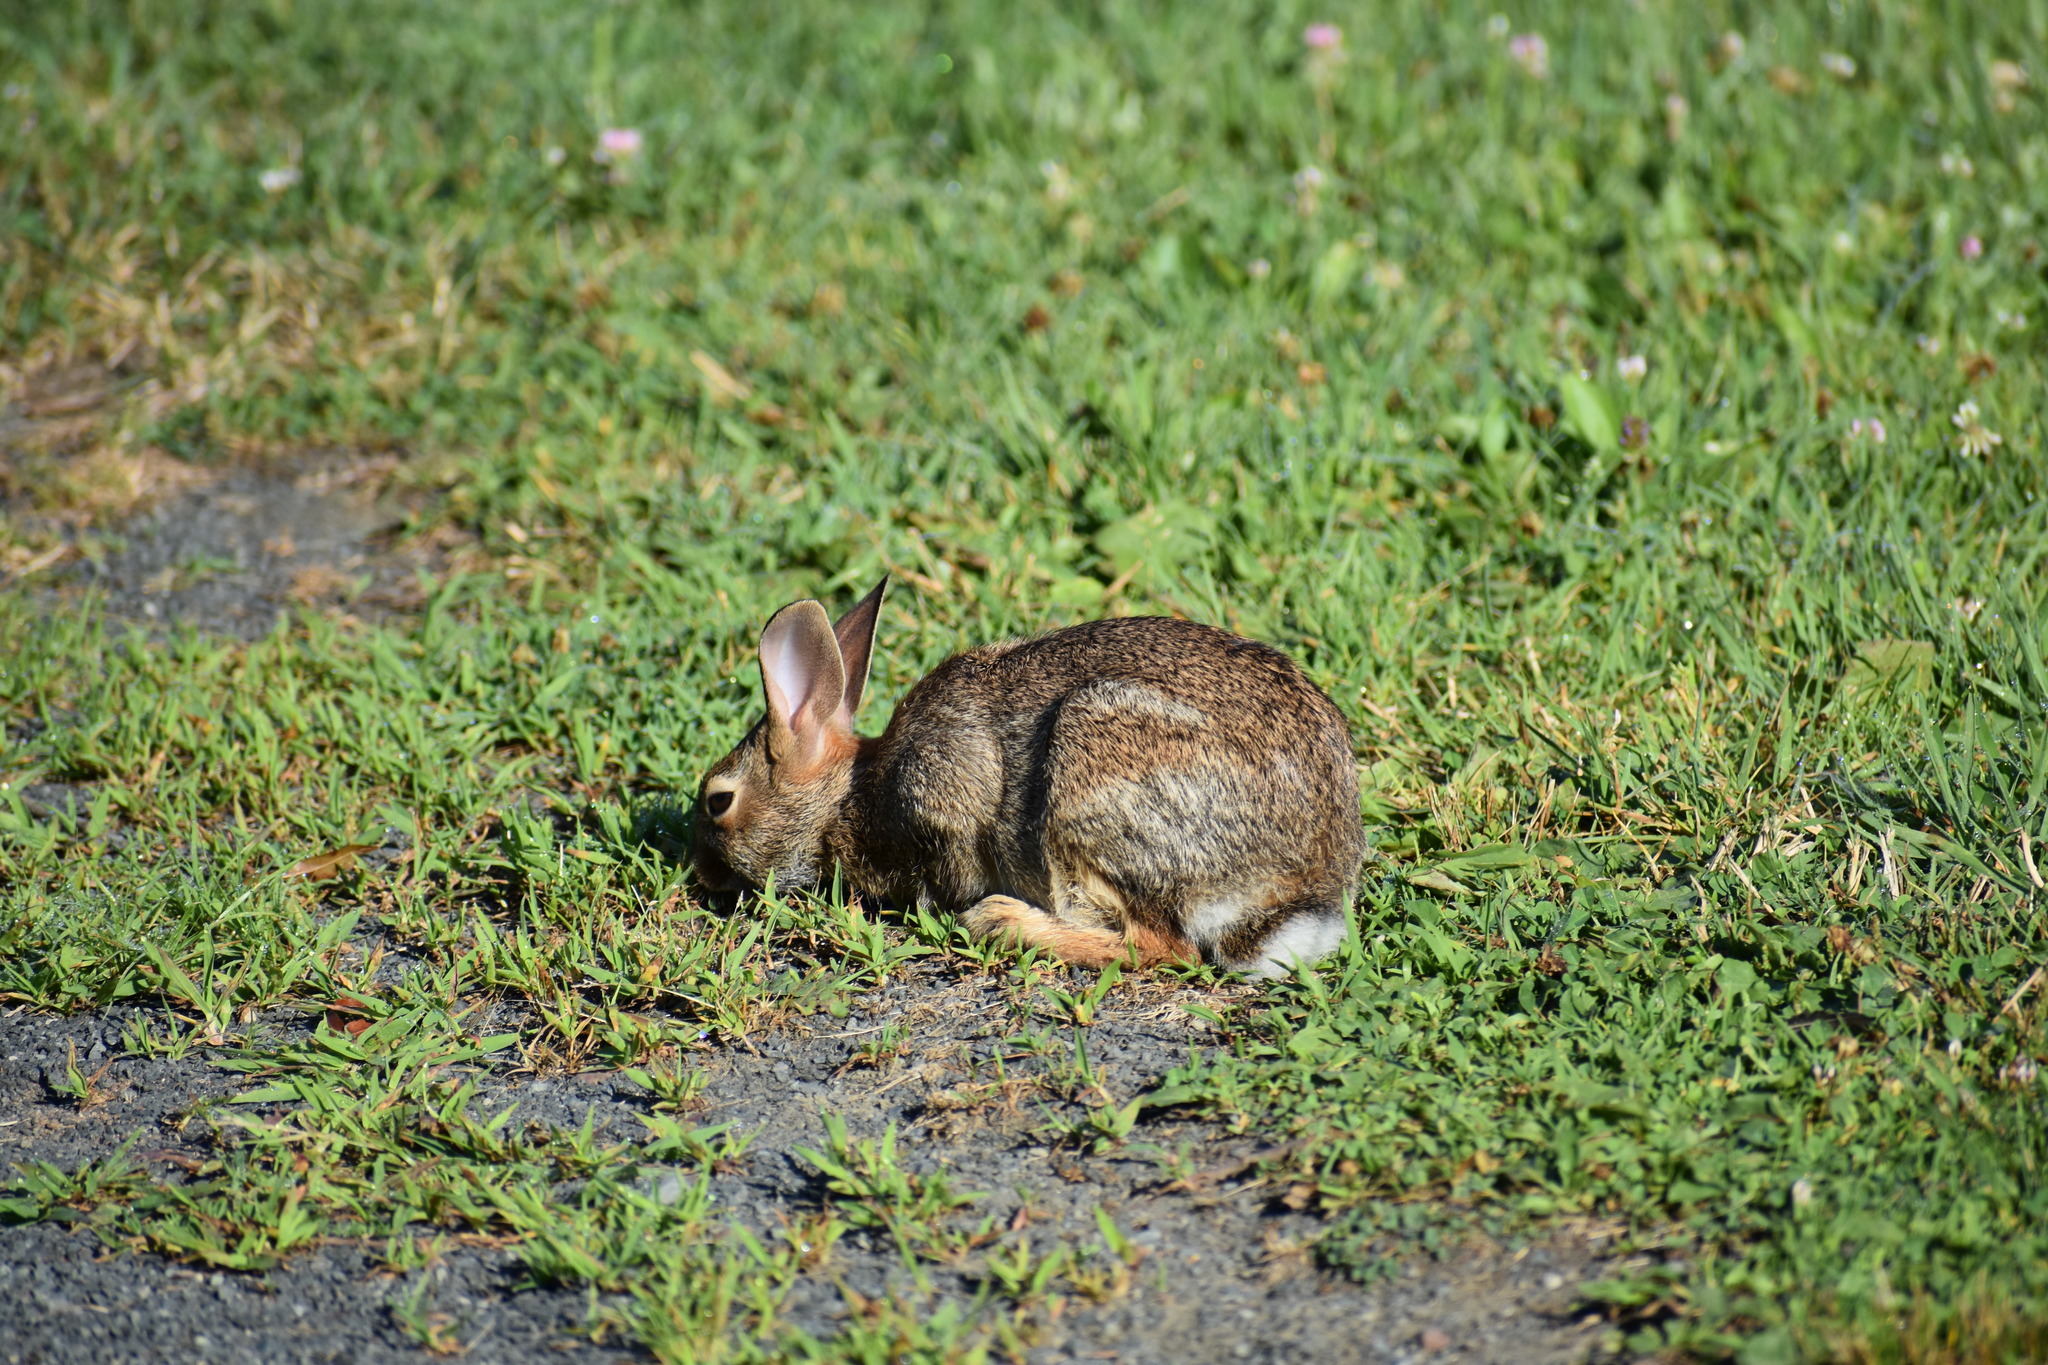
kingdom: Animalia
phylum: Chordata
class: Mammalia
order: Lagomorpha
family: Leporidae
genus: Sylvilagus
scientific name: Sylvilagus floridanus
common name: Eastern cottontail
